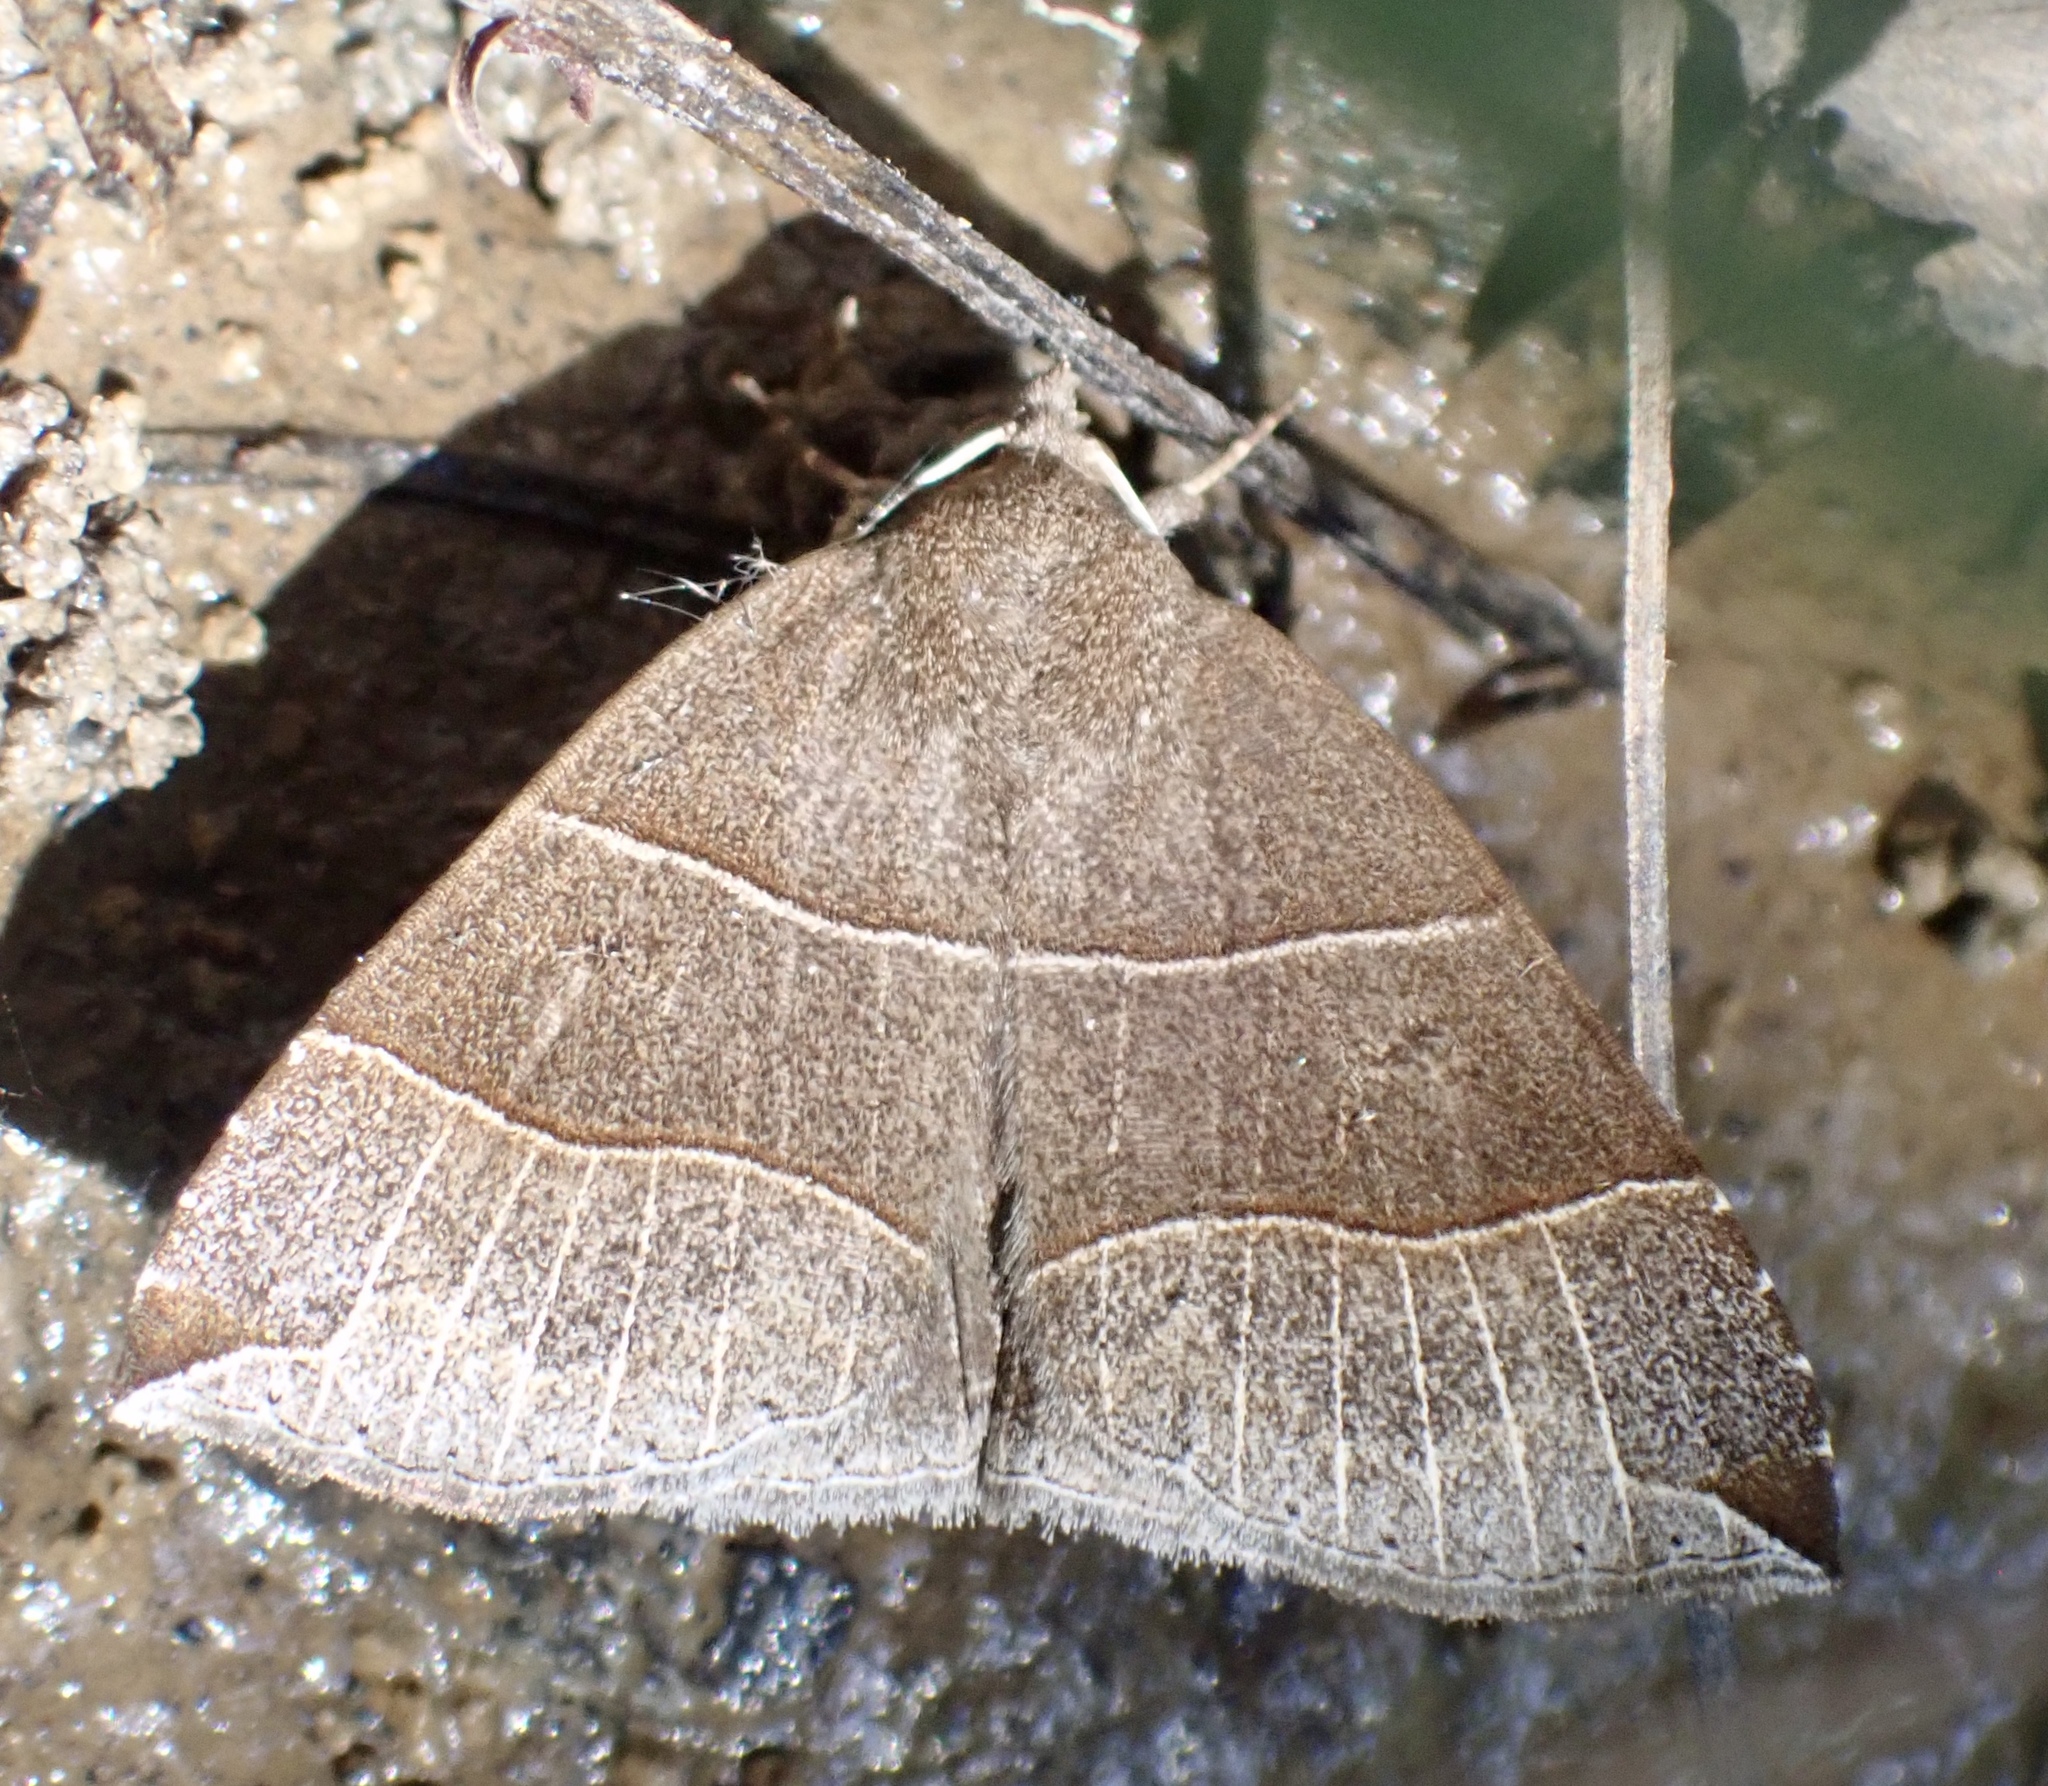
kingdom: Animalia
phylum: Arthropoda
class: Insecta
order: Lepidoptera
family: Erebidae
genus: Parallelia
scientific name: Parallelia bistriaris
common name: Maple looper moth
